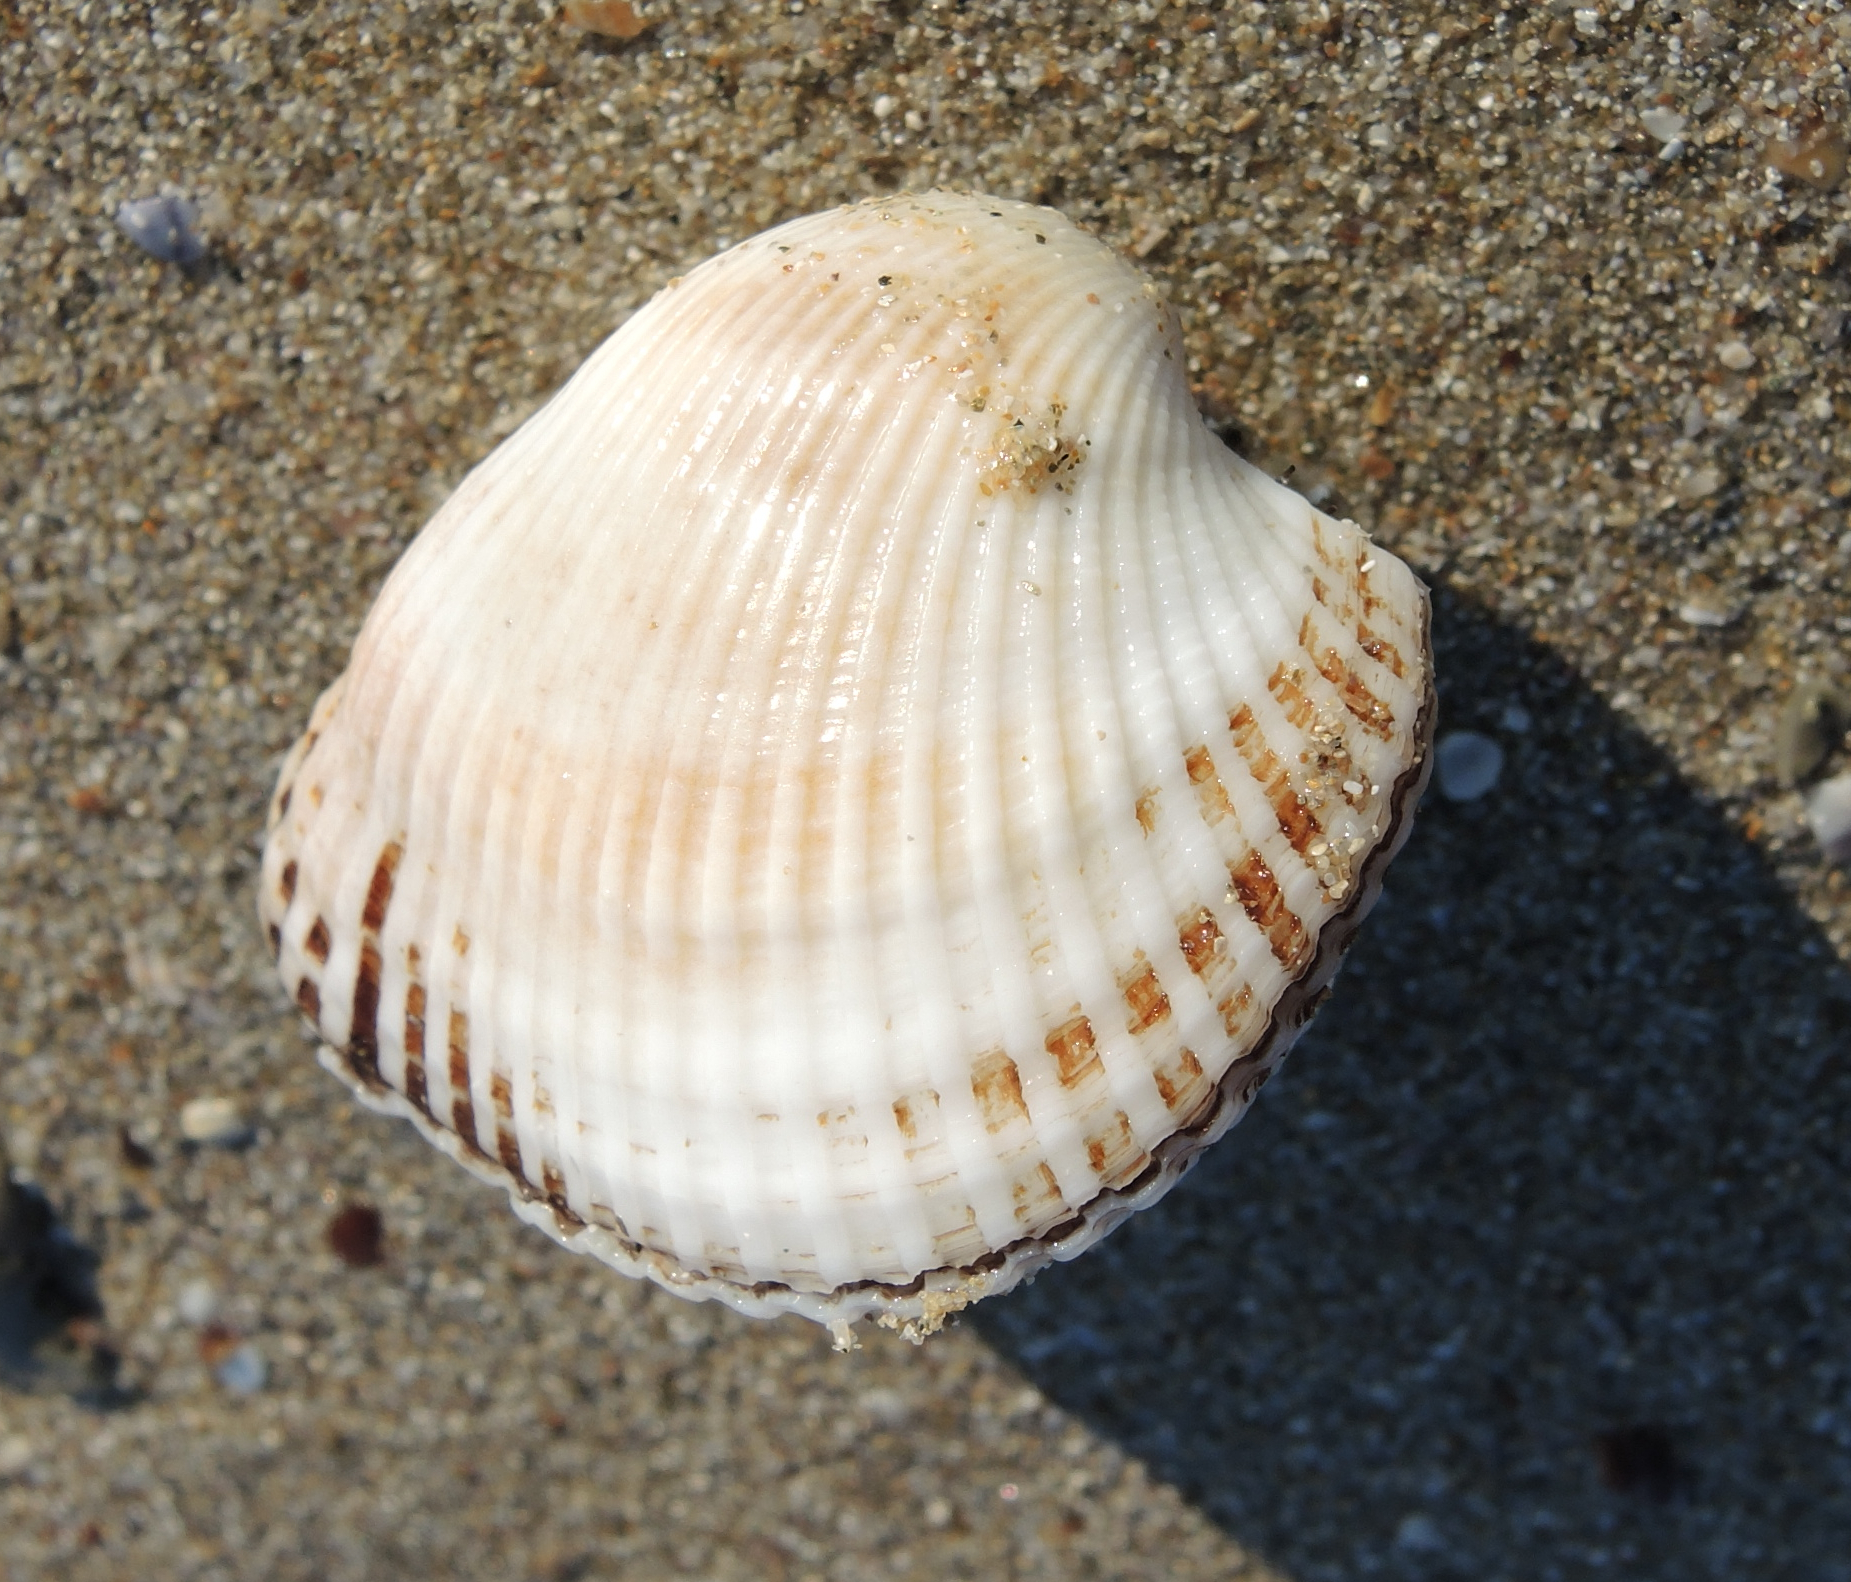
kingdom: Animalia
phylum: Mollusca
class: Bivalvia
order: Arcida
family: Arcidae
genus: Anadara
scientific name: Anadara kagoshimensis
